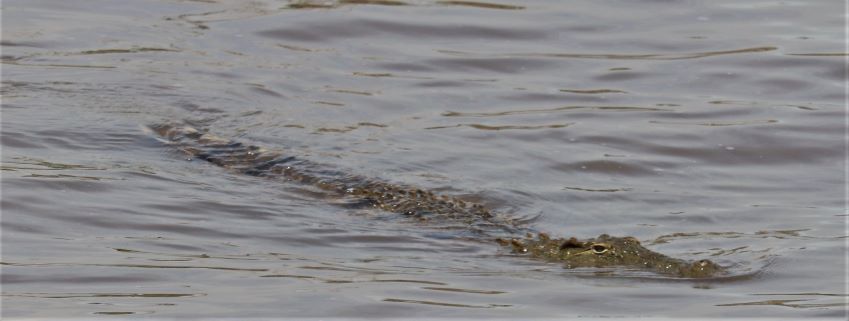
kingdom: Animalia
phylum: Chordata
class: Crocodylia
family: Crocodylidae
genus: Crocodylus
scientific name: Crocodylus niloticus
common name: Nile crocodile
